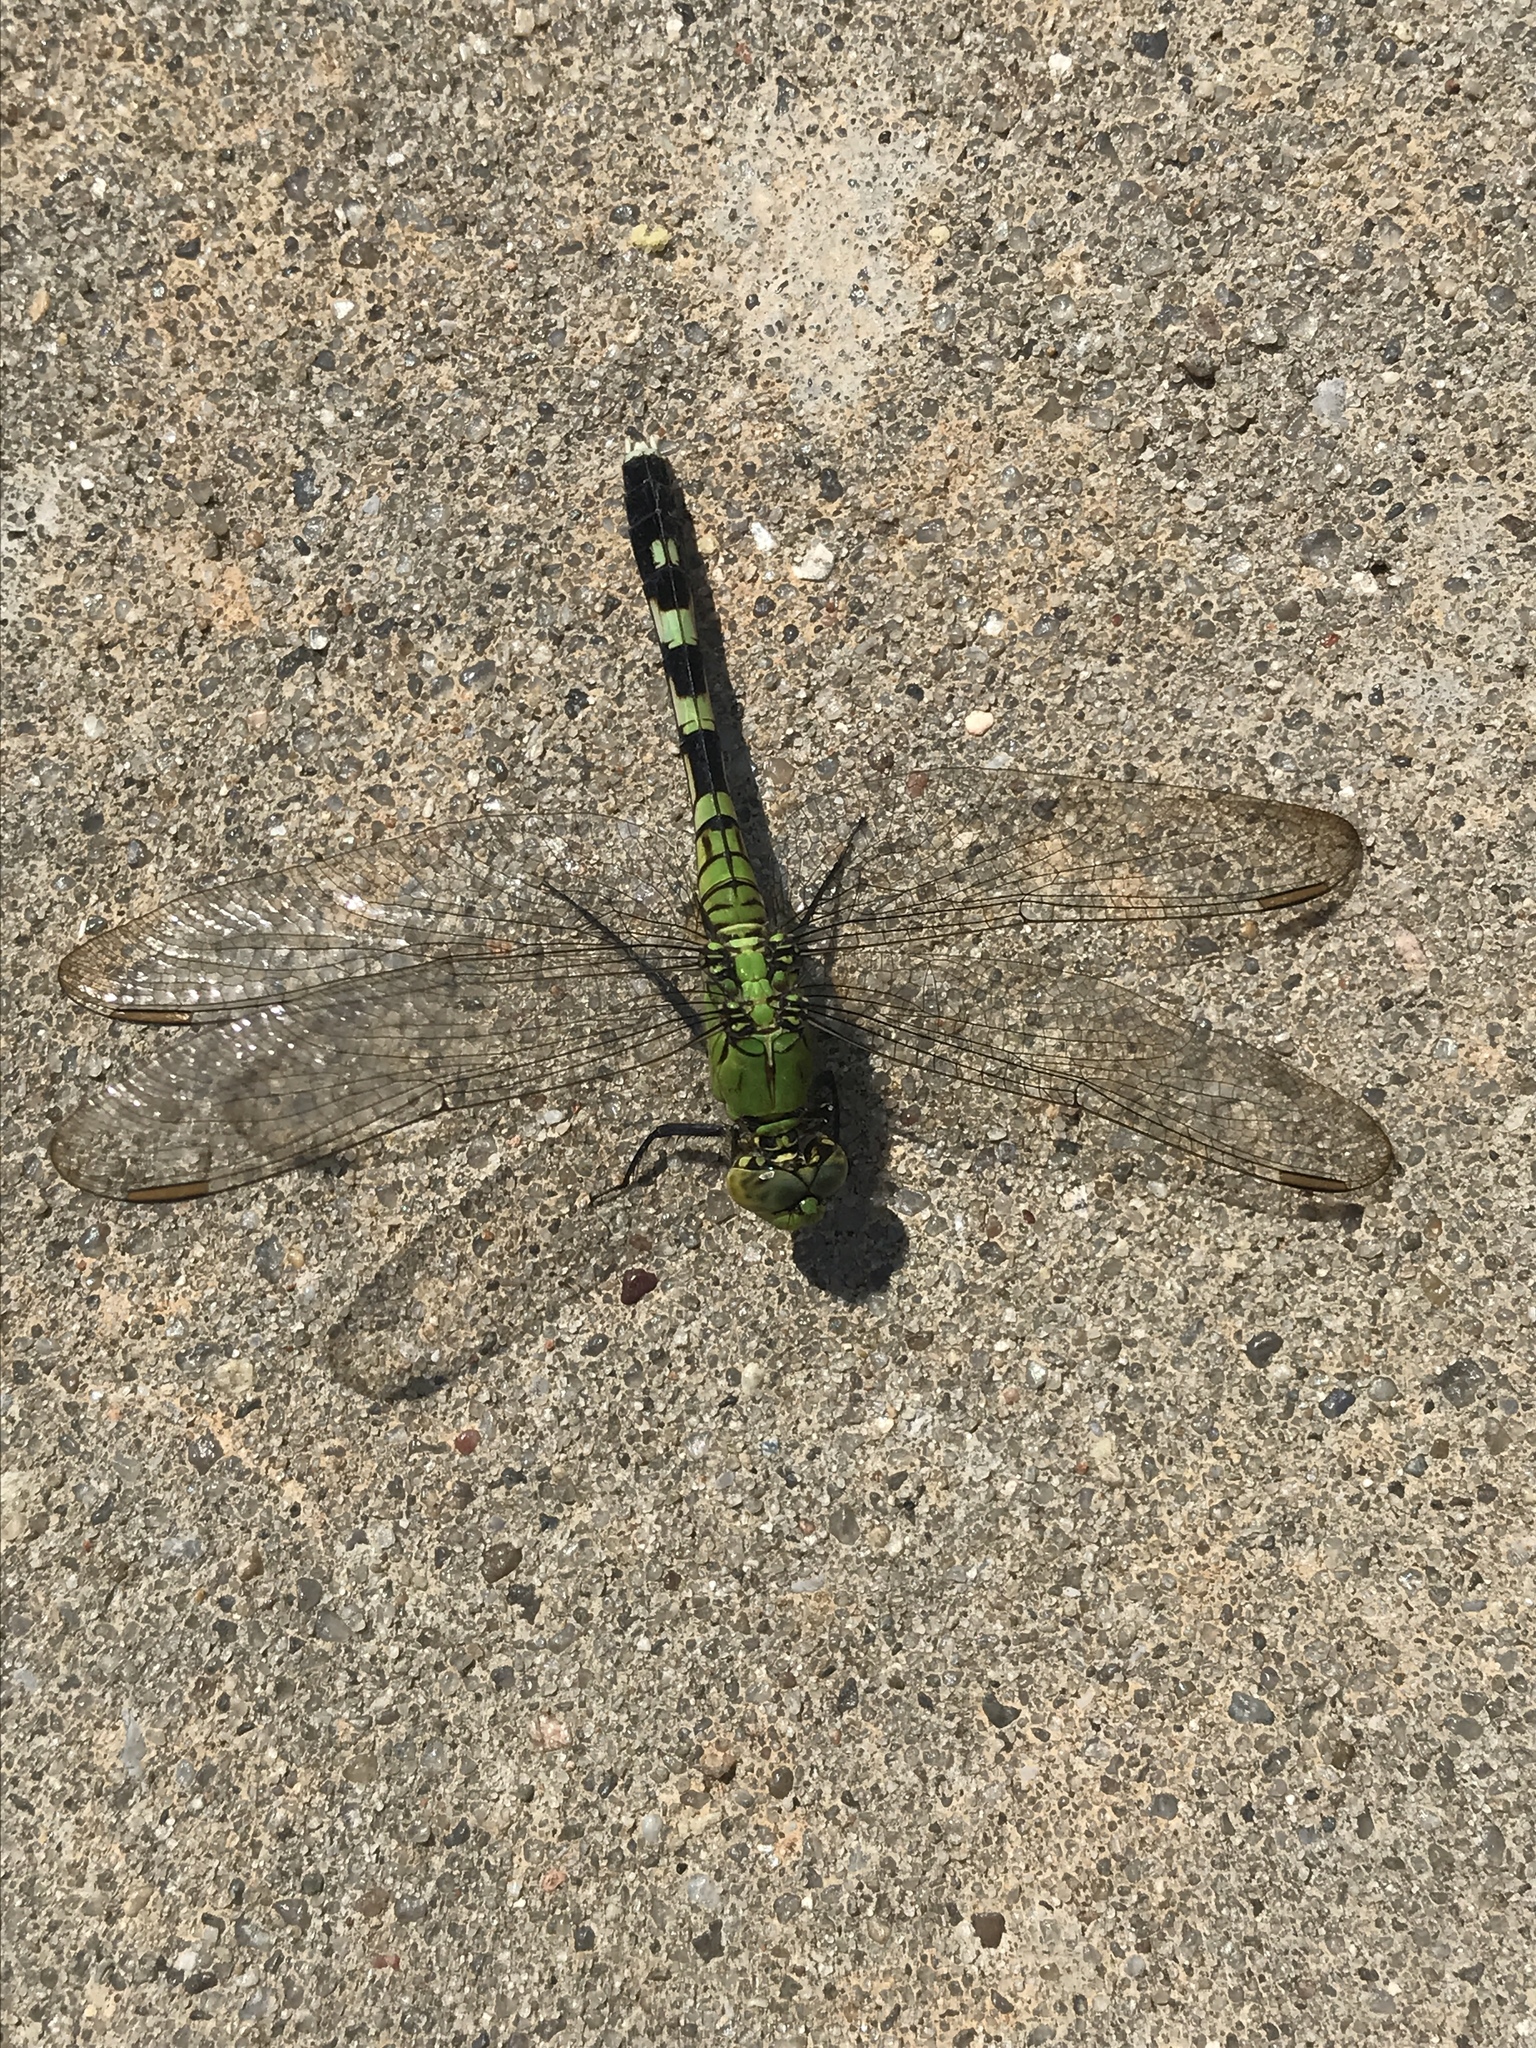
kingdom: Animalia
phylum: Arthropoda
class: Insecta
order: Odonata
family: Libellulidae
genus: Erythemis
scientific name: Erythemis simplicicollis
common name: Eastern pondhawk
